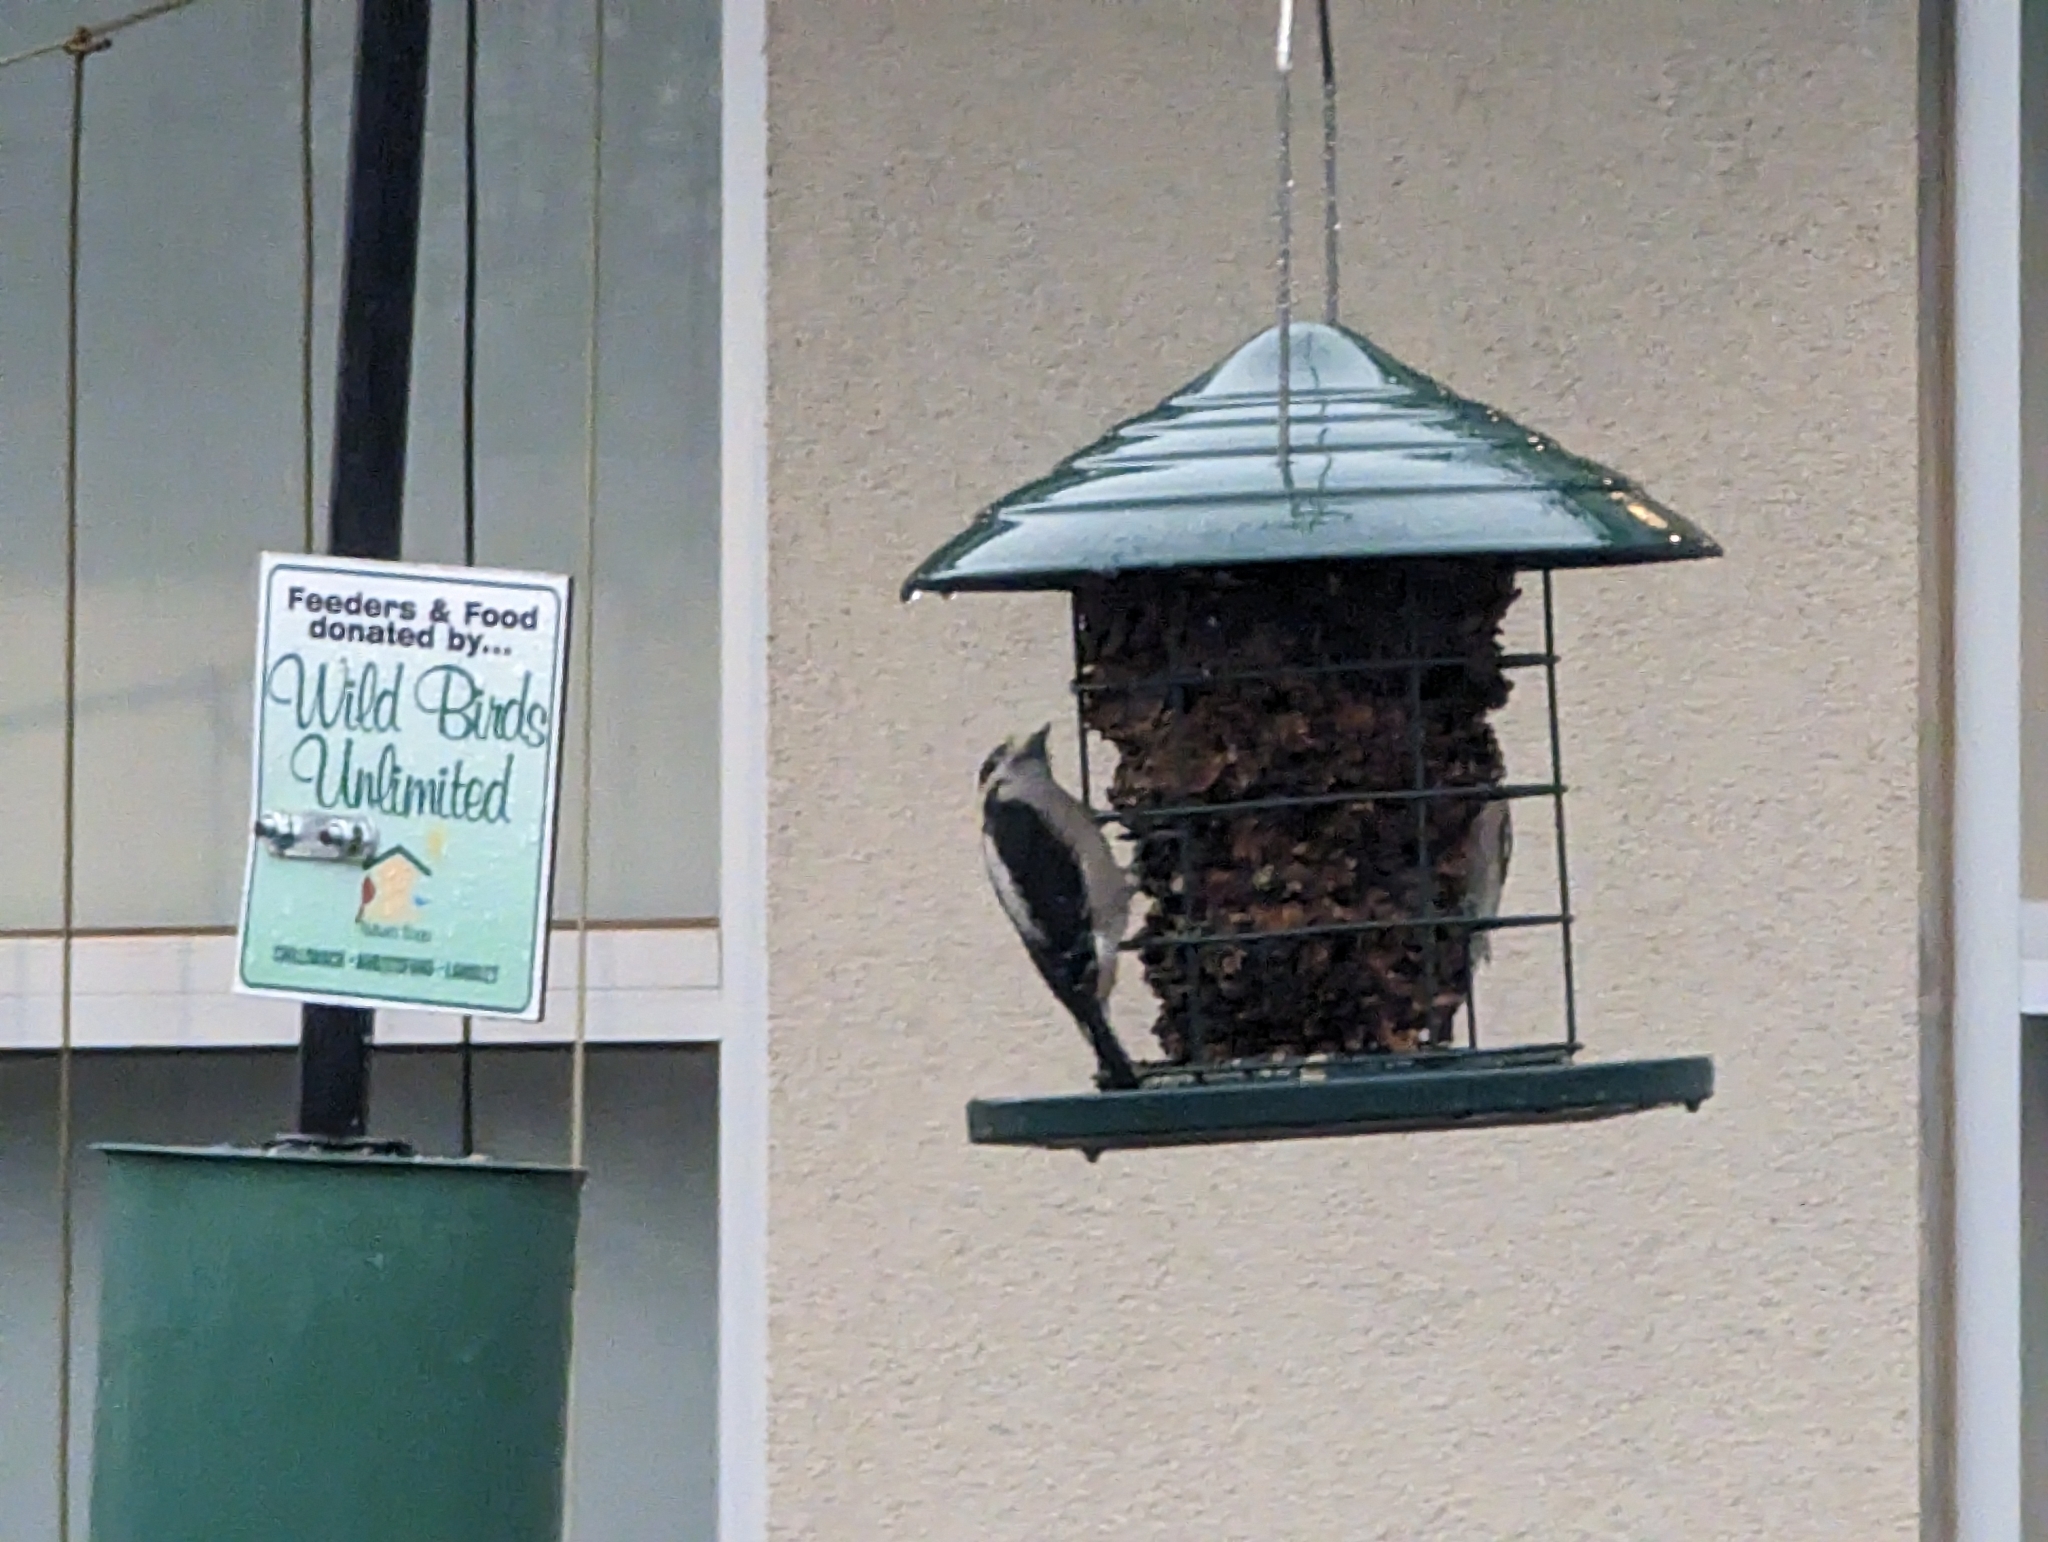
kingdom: Animalia
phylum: Chordata
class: Aves
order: Piciformes
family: Picidae
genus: Dryobates
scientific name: Dryobates pubescens
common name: Downy woodpecker
